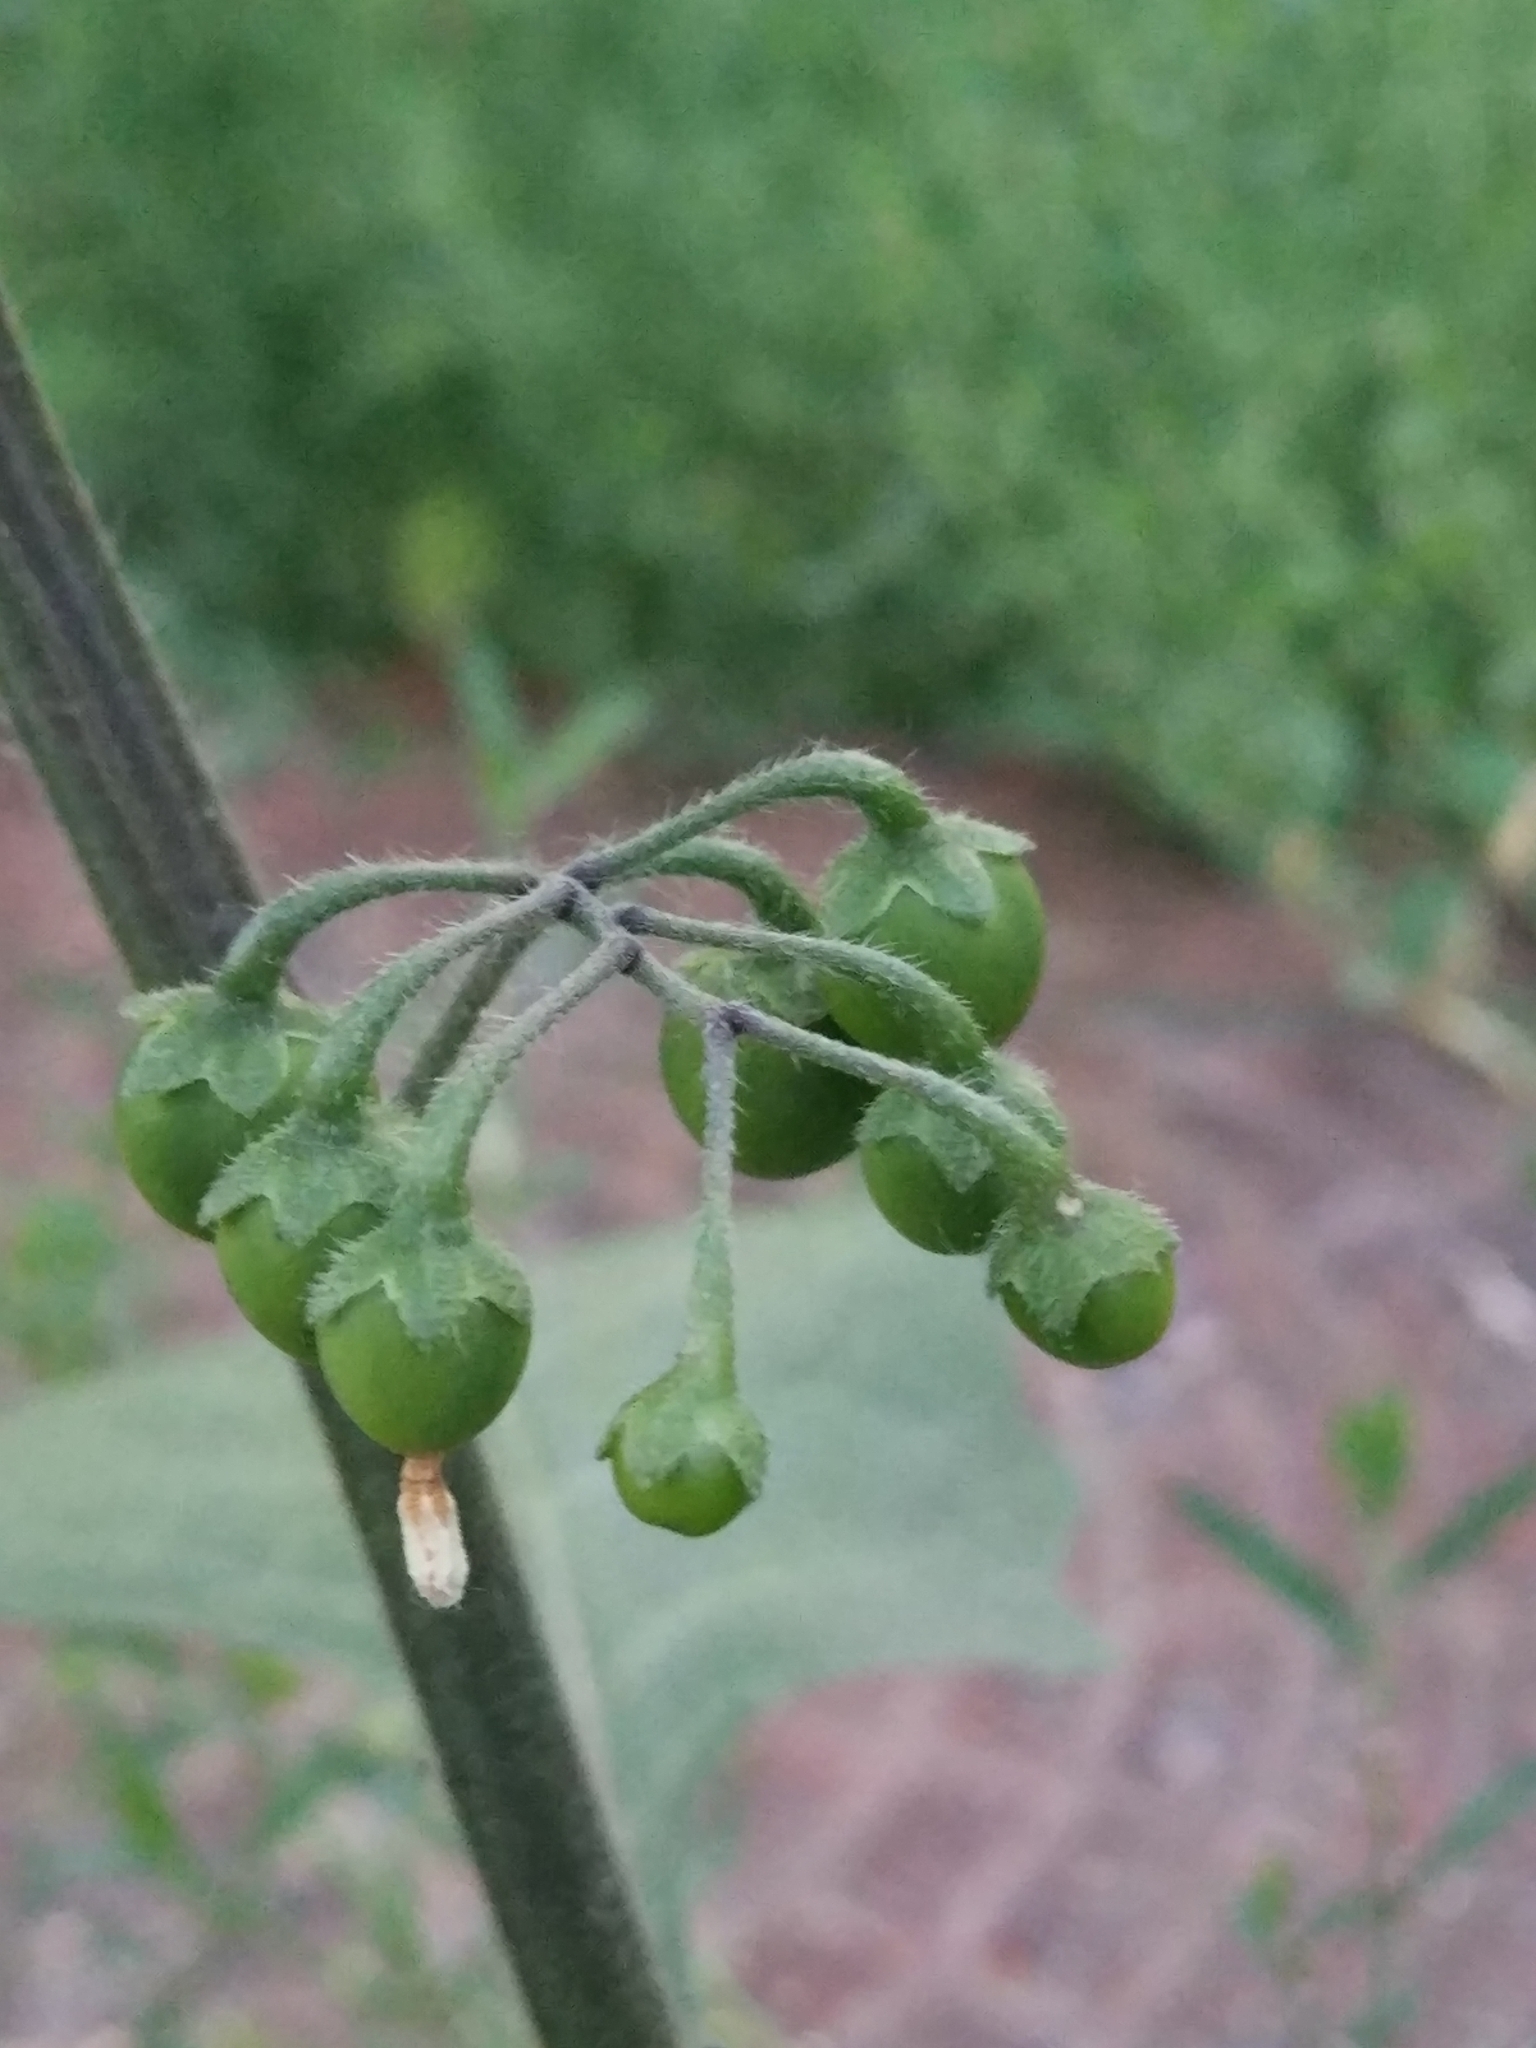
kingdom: Plantae
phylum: Tracheophyta
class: Magnoliopsida
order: Solanales
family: Solanaceae
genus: Solanum
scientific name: Solanum nigrum
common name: Black nightshade
